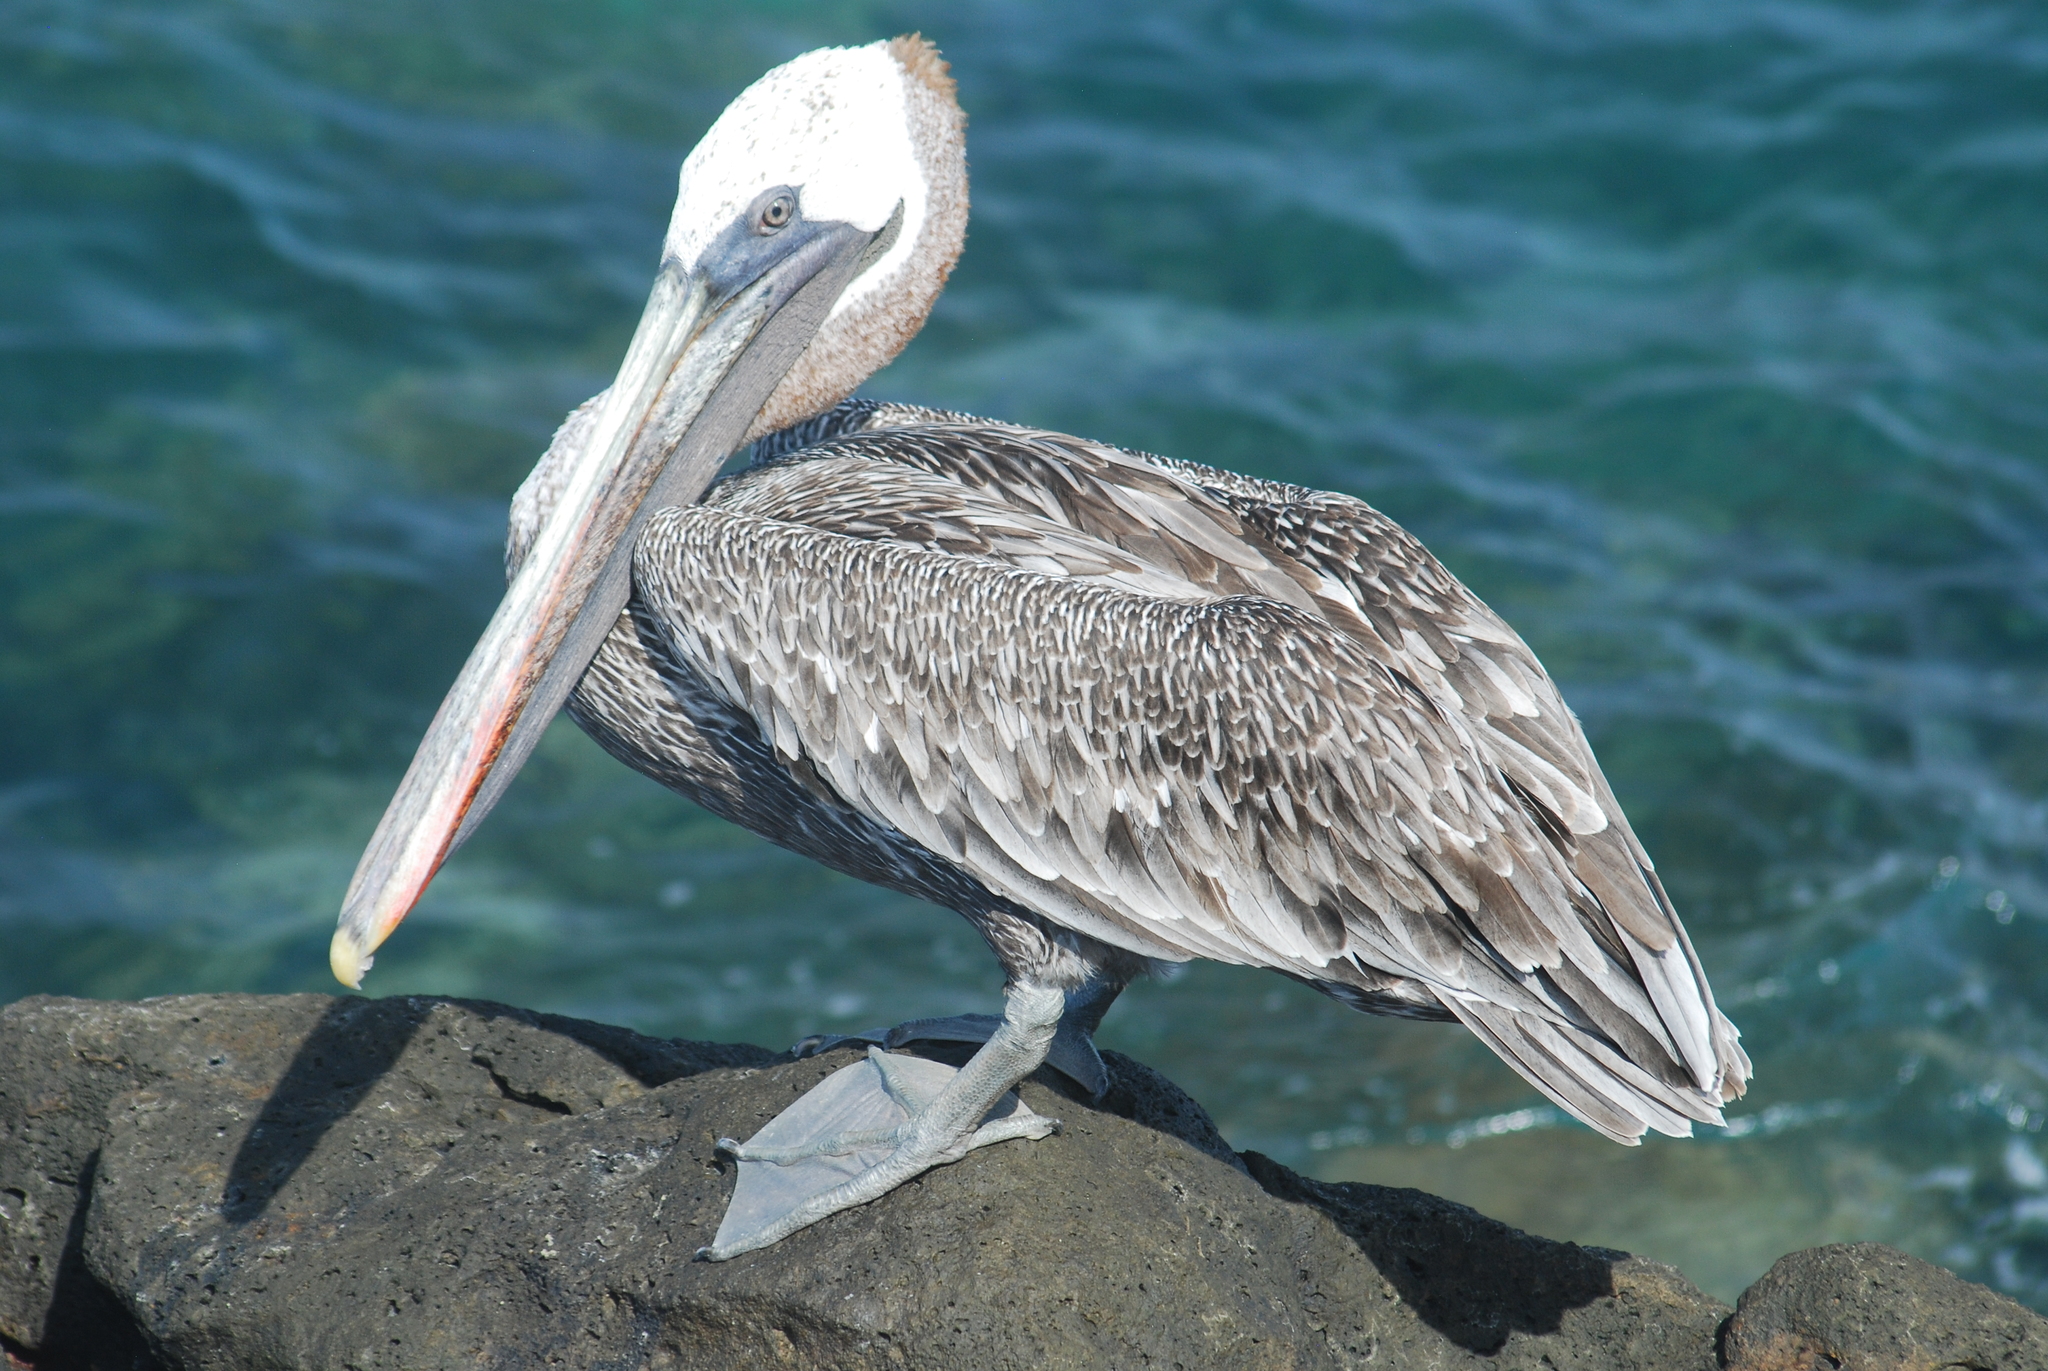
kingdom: Animalia
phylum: Chordata
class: Aves
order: Pelecaniformes
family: Pelecanidae
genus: Pelecanus
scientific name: Pelecanus occidentalis
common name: Brown pelican
